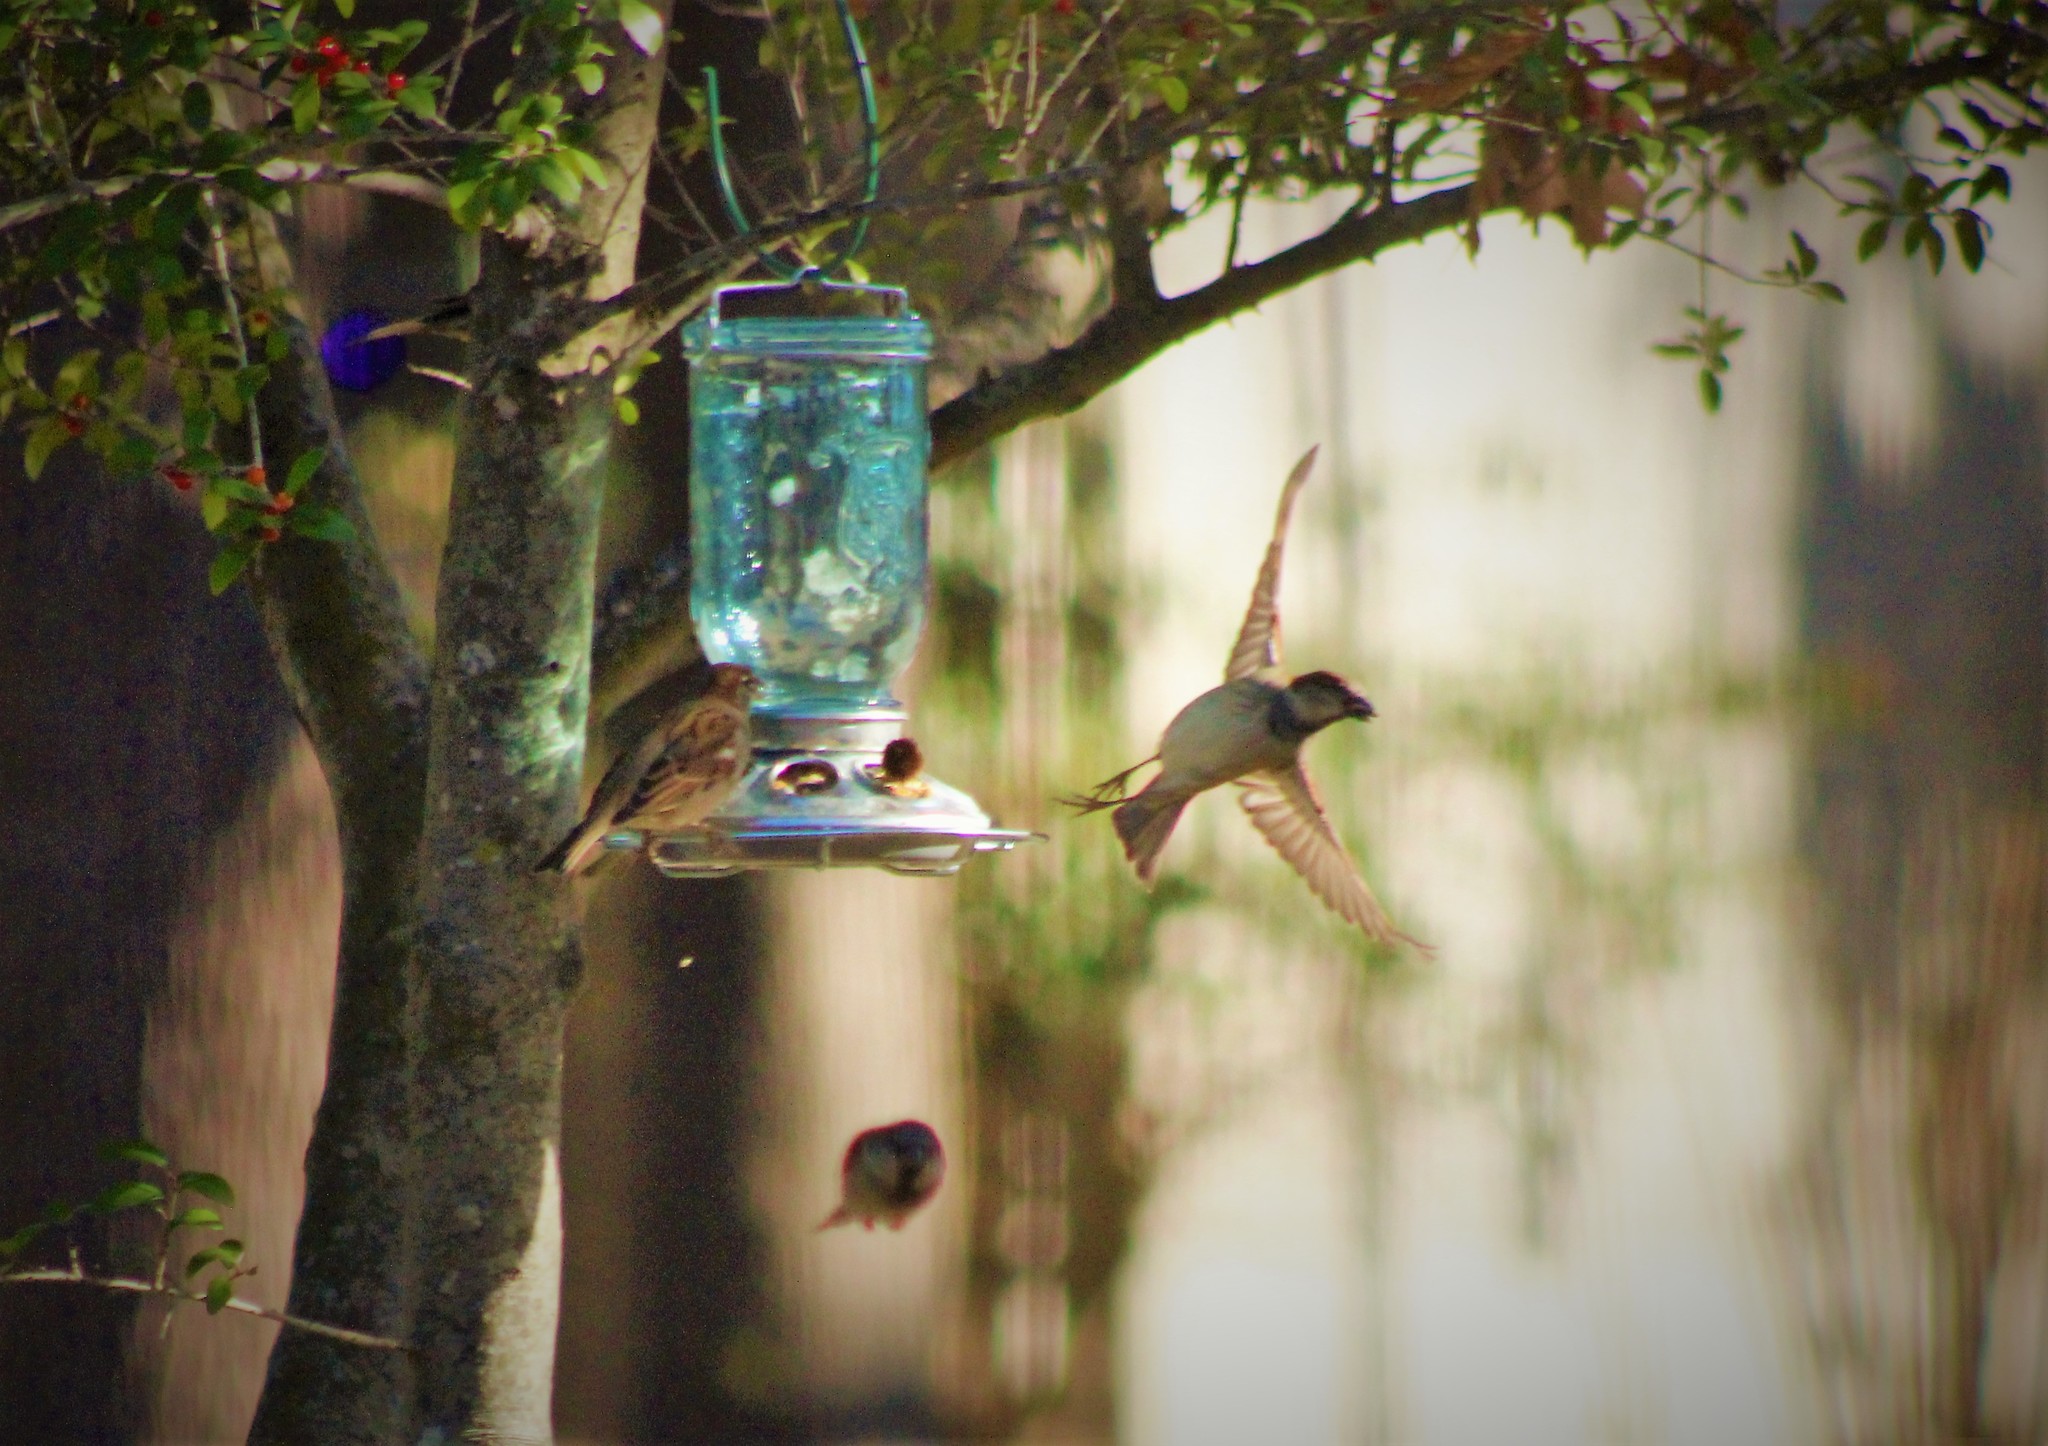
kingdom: Animalia
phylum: Chordata
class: Aves
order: Passeriformes
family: Passeridae
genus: Passer
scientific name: Passer domesticus
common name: House sparrow
